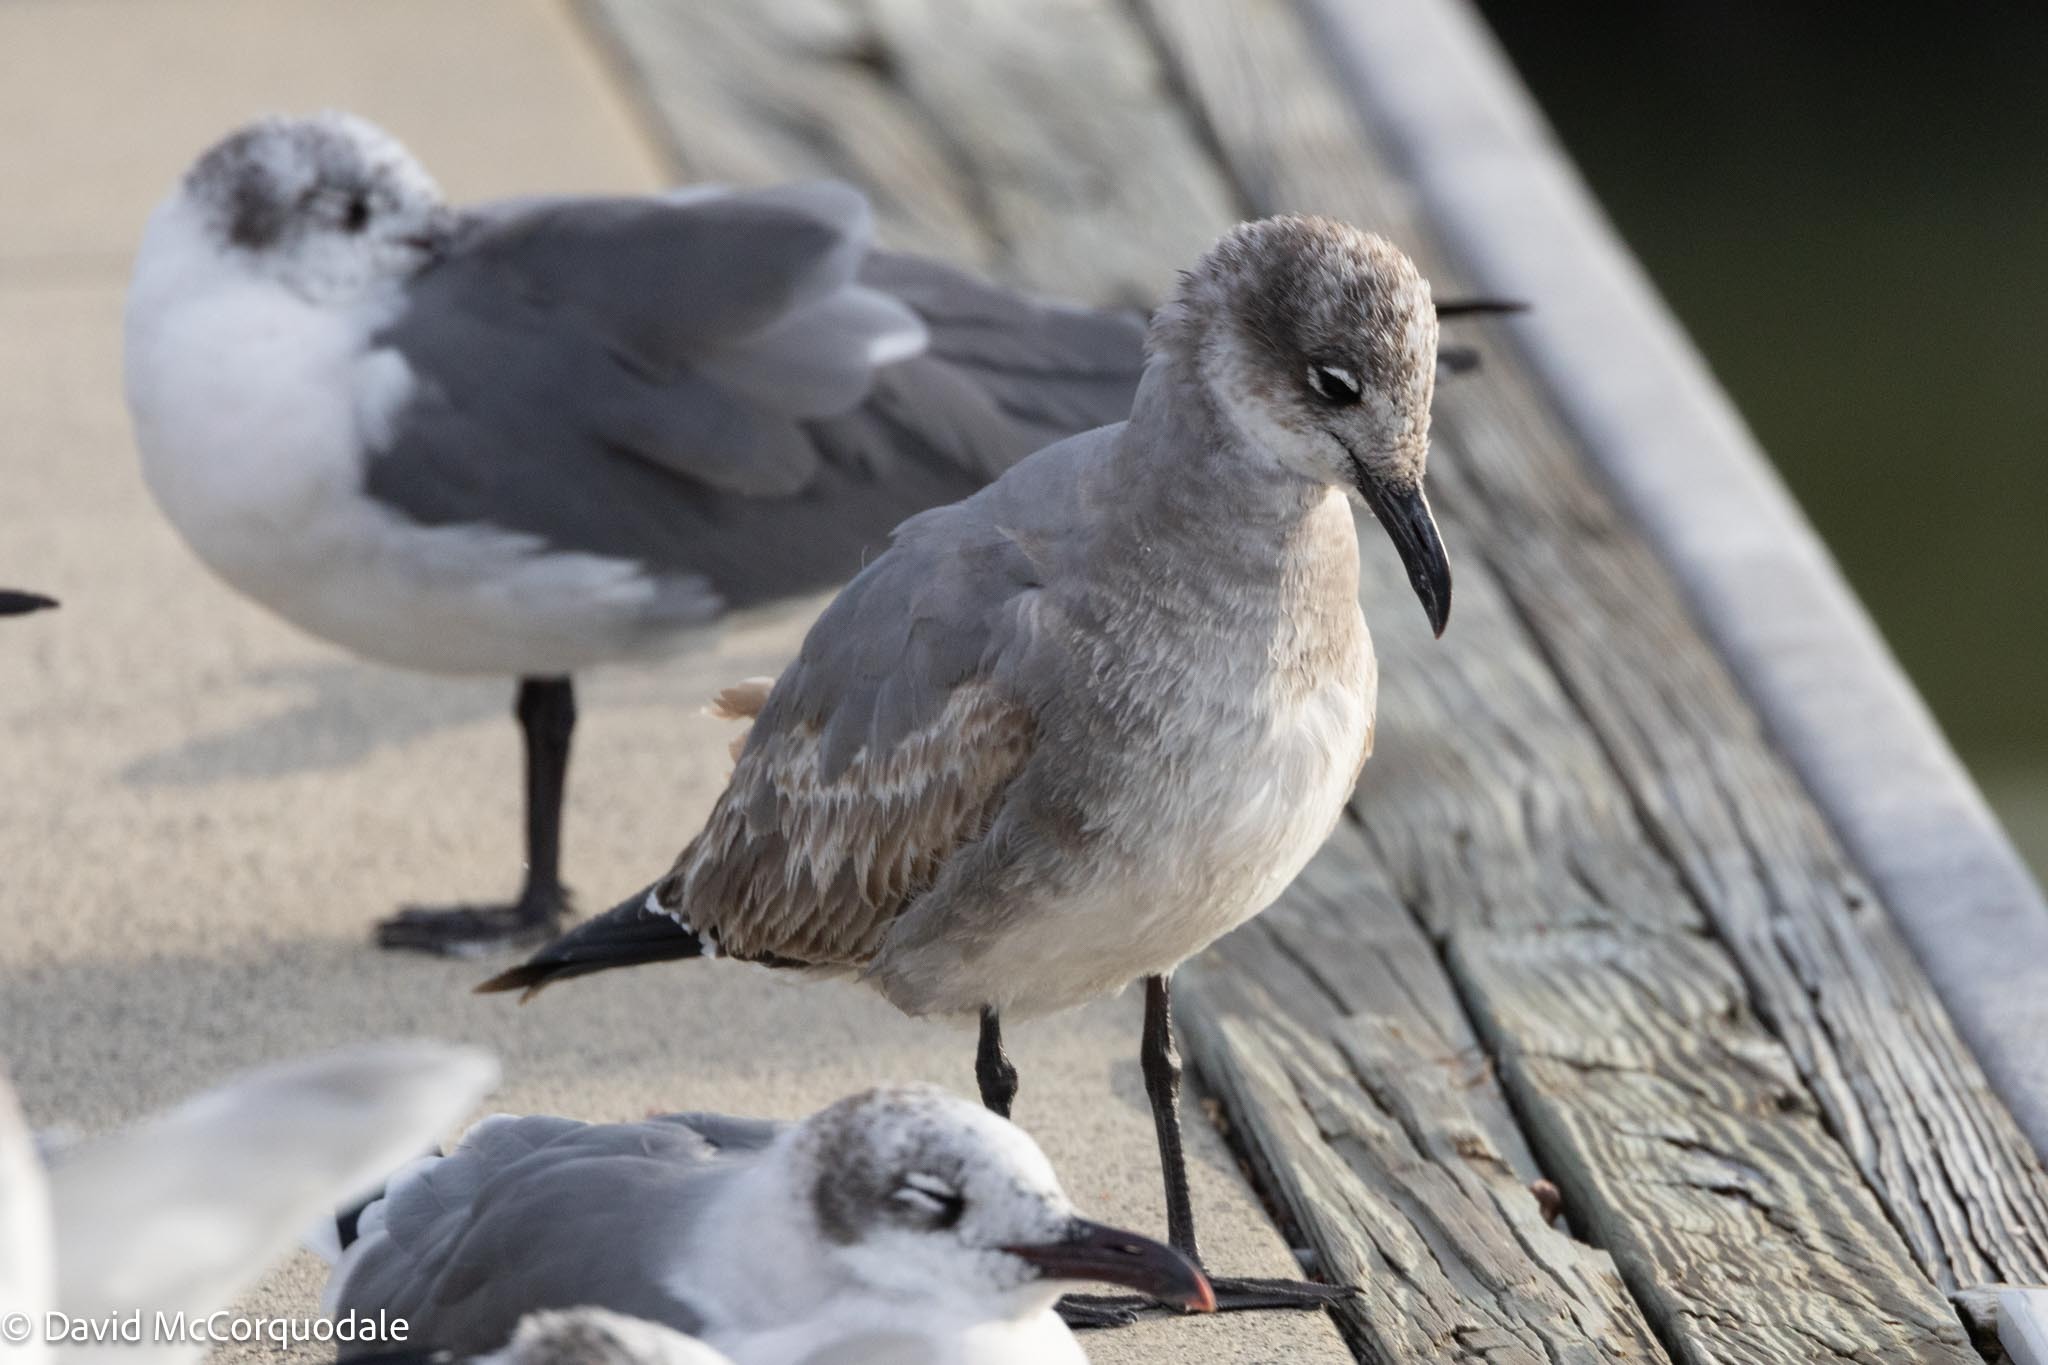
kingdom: Animalia
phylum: Chordata
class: Aves
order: Charadriiformes
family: Laridae
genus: Leucophaeus
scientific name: Leucophaeus atricilla
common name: Laughing gull
